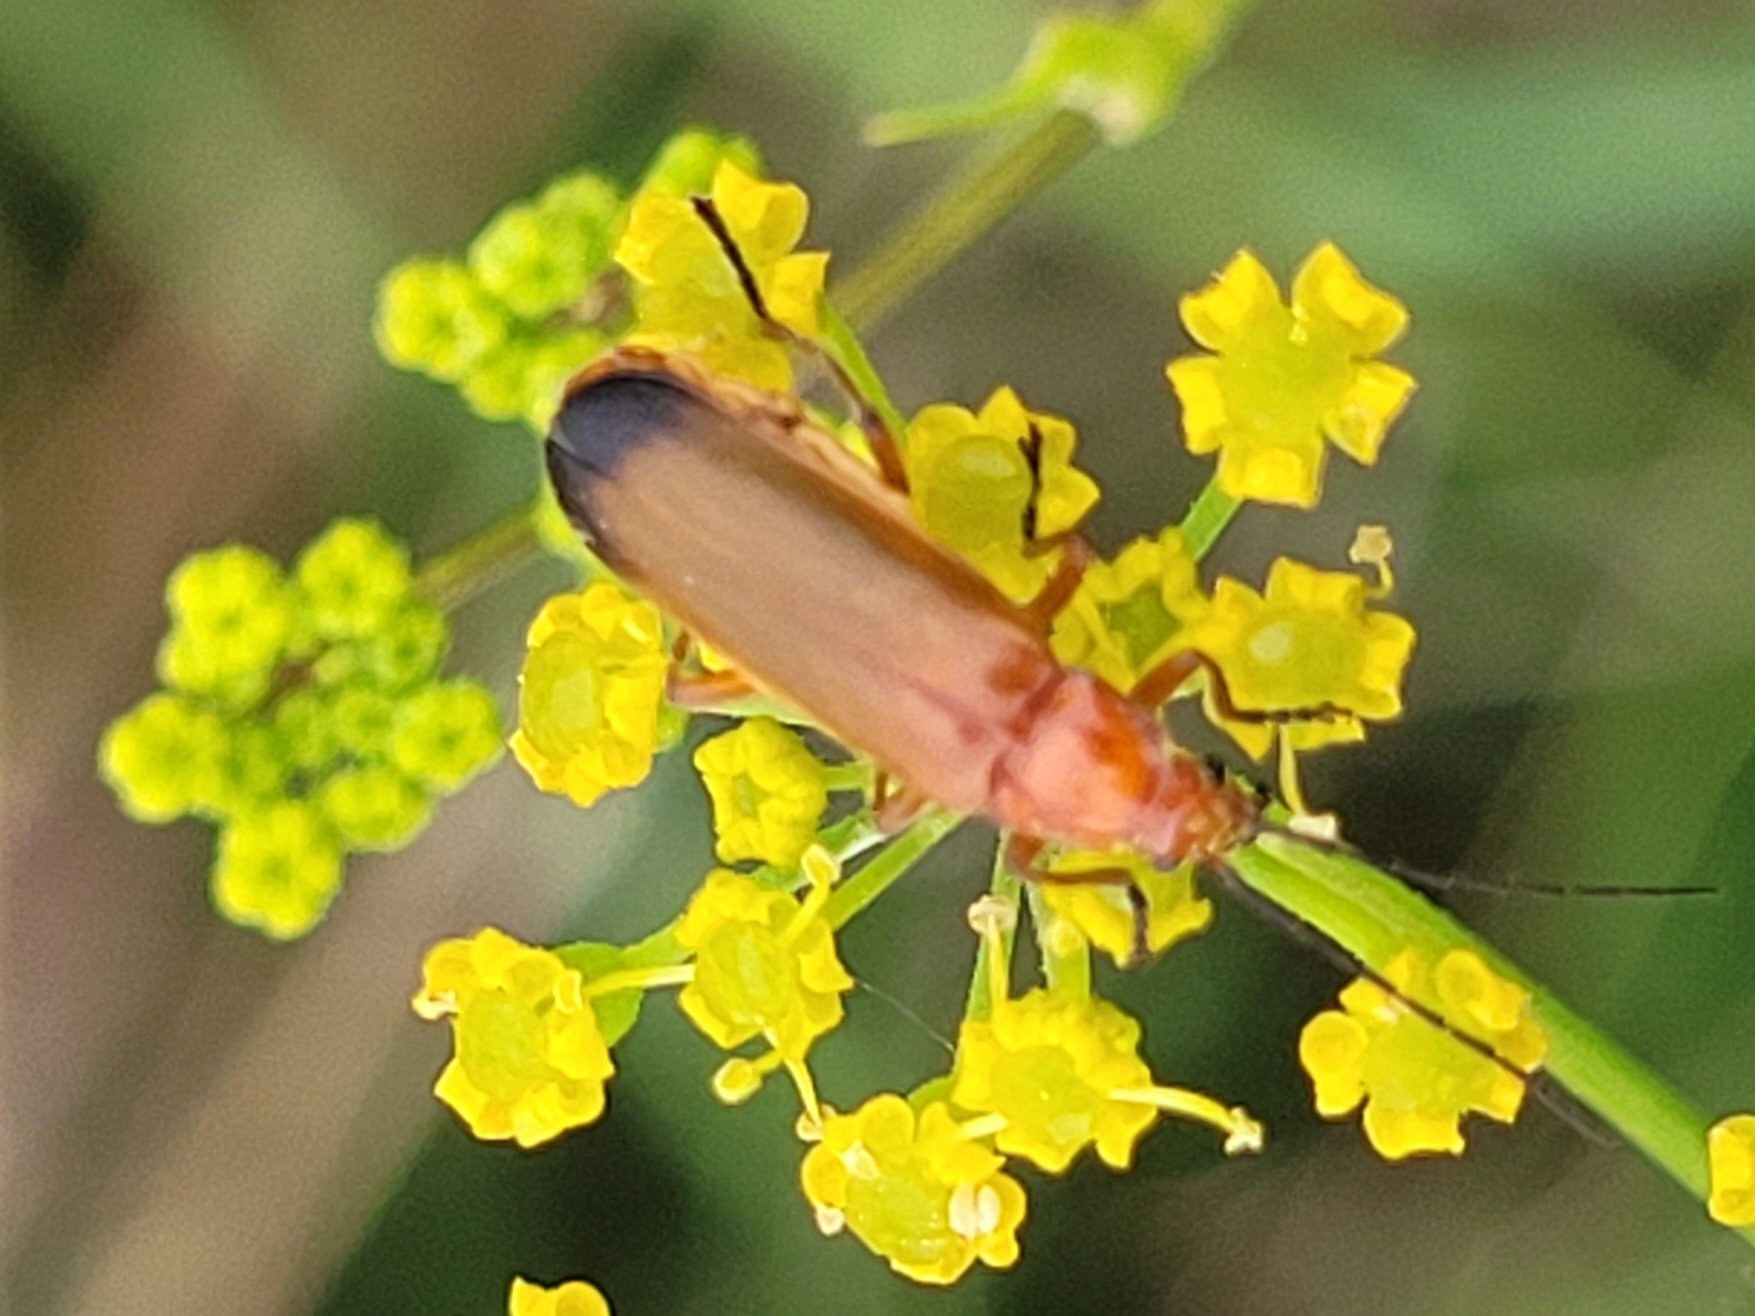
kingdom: Animalia
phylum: Arthropoda
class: Insecta
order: Coleoptera
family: Cantharidae
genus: Rhagonycha
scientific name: Rhagonycha fulva
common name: Common red soldier beetle
